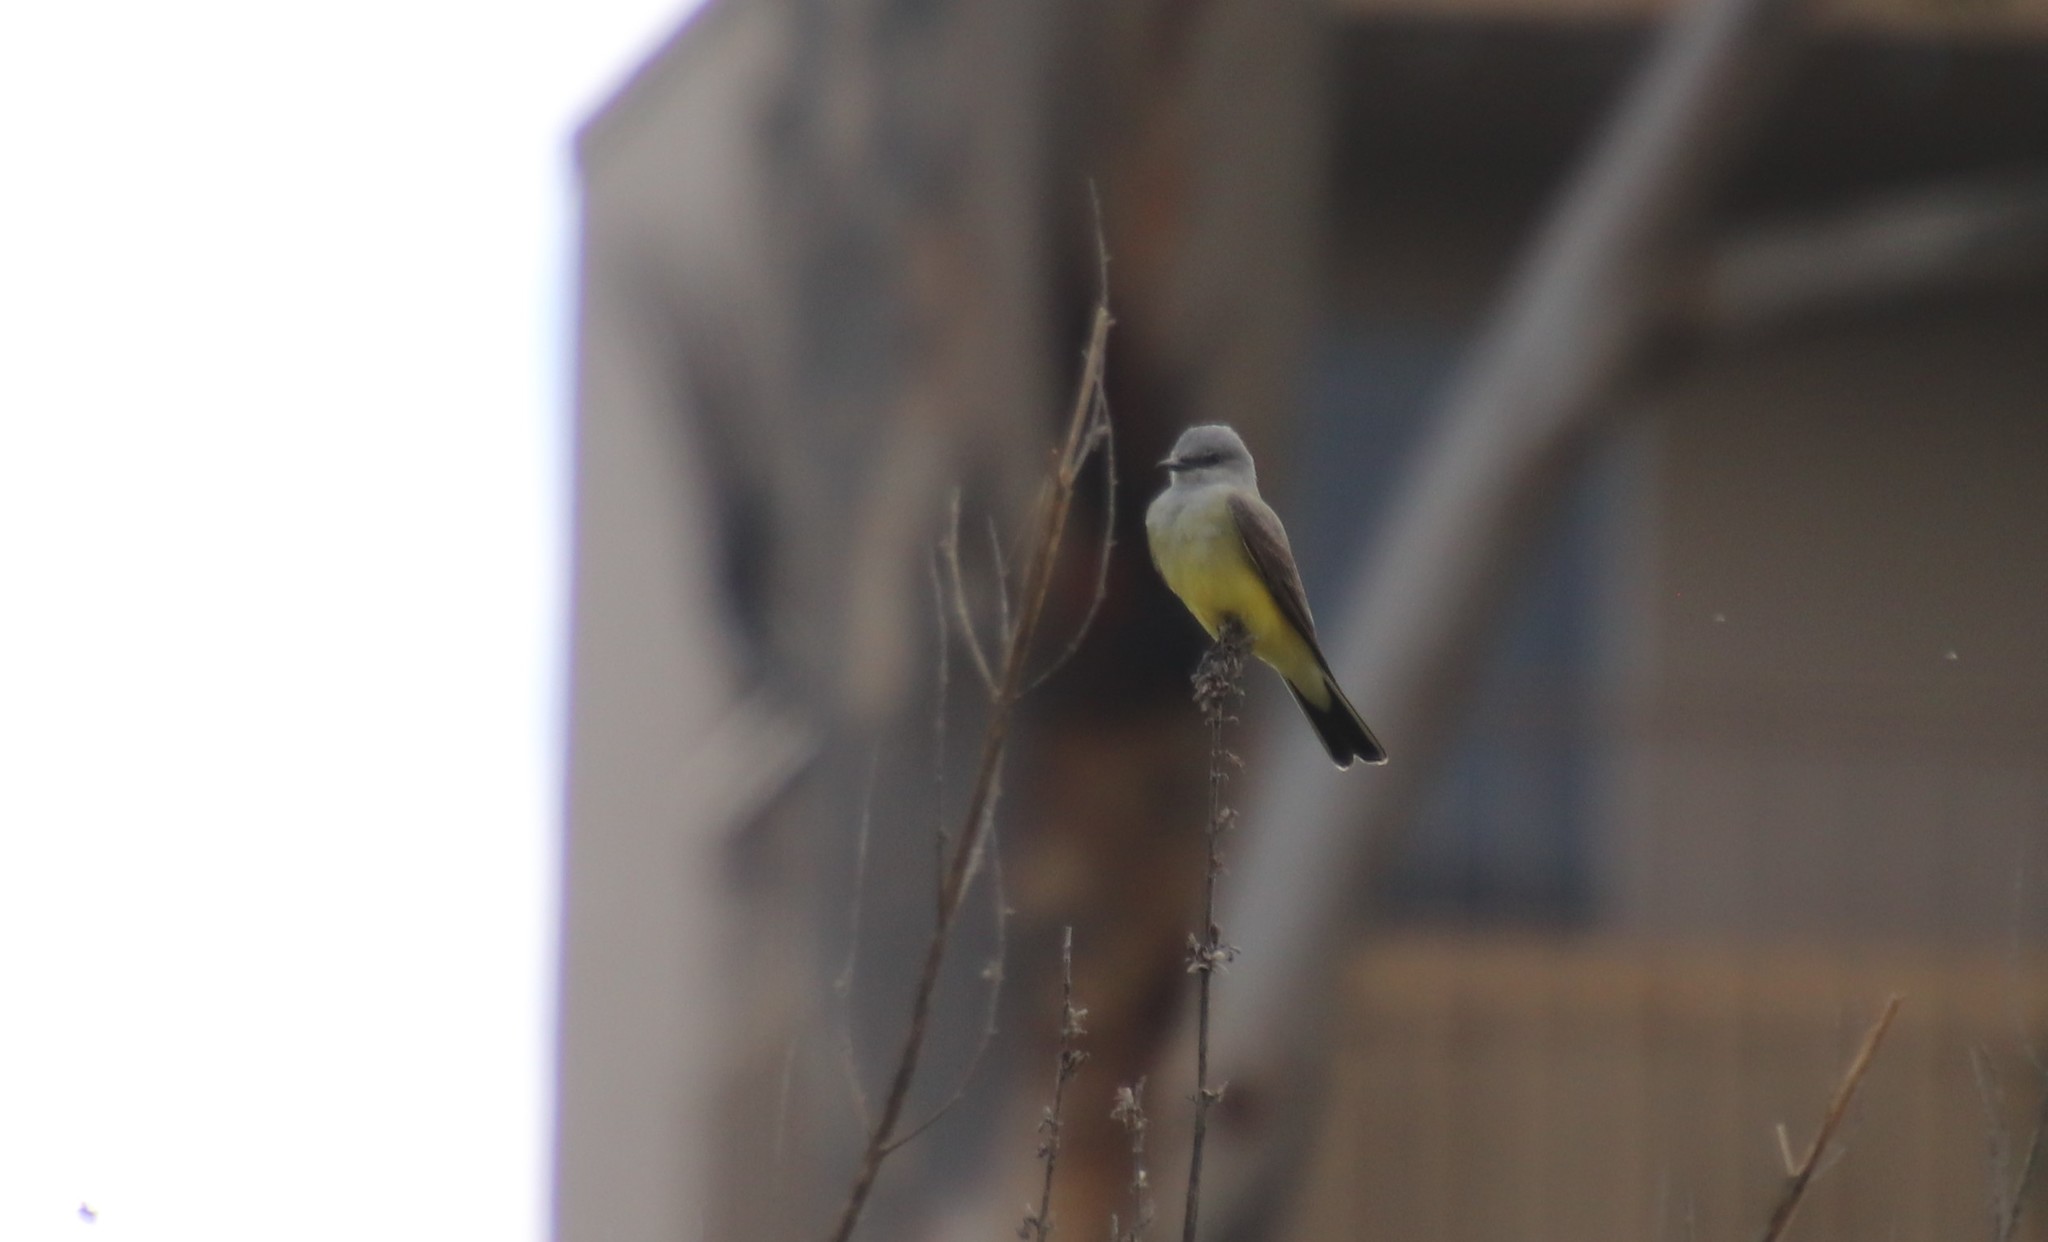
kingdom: Animalia
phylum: Chordata
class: Aves
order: Passeriformes
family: Tyrannidae
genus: Tyrannus
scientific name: Tyrannus verticalis
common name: Western kingbird
